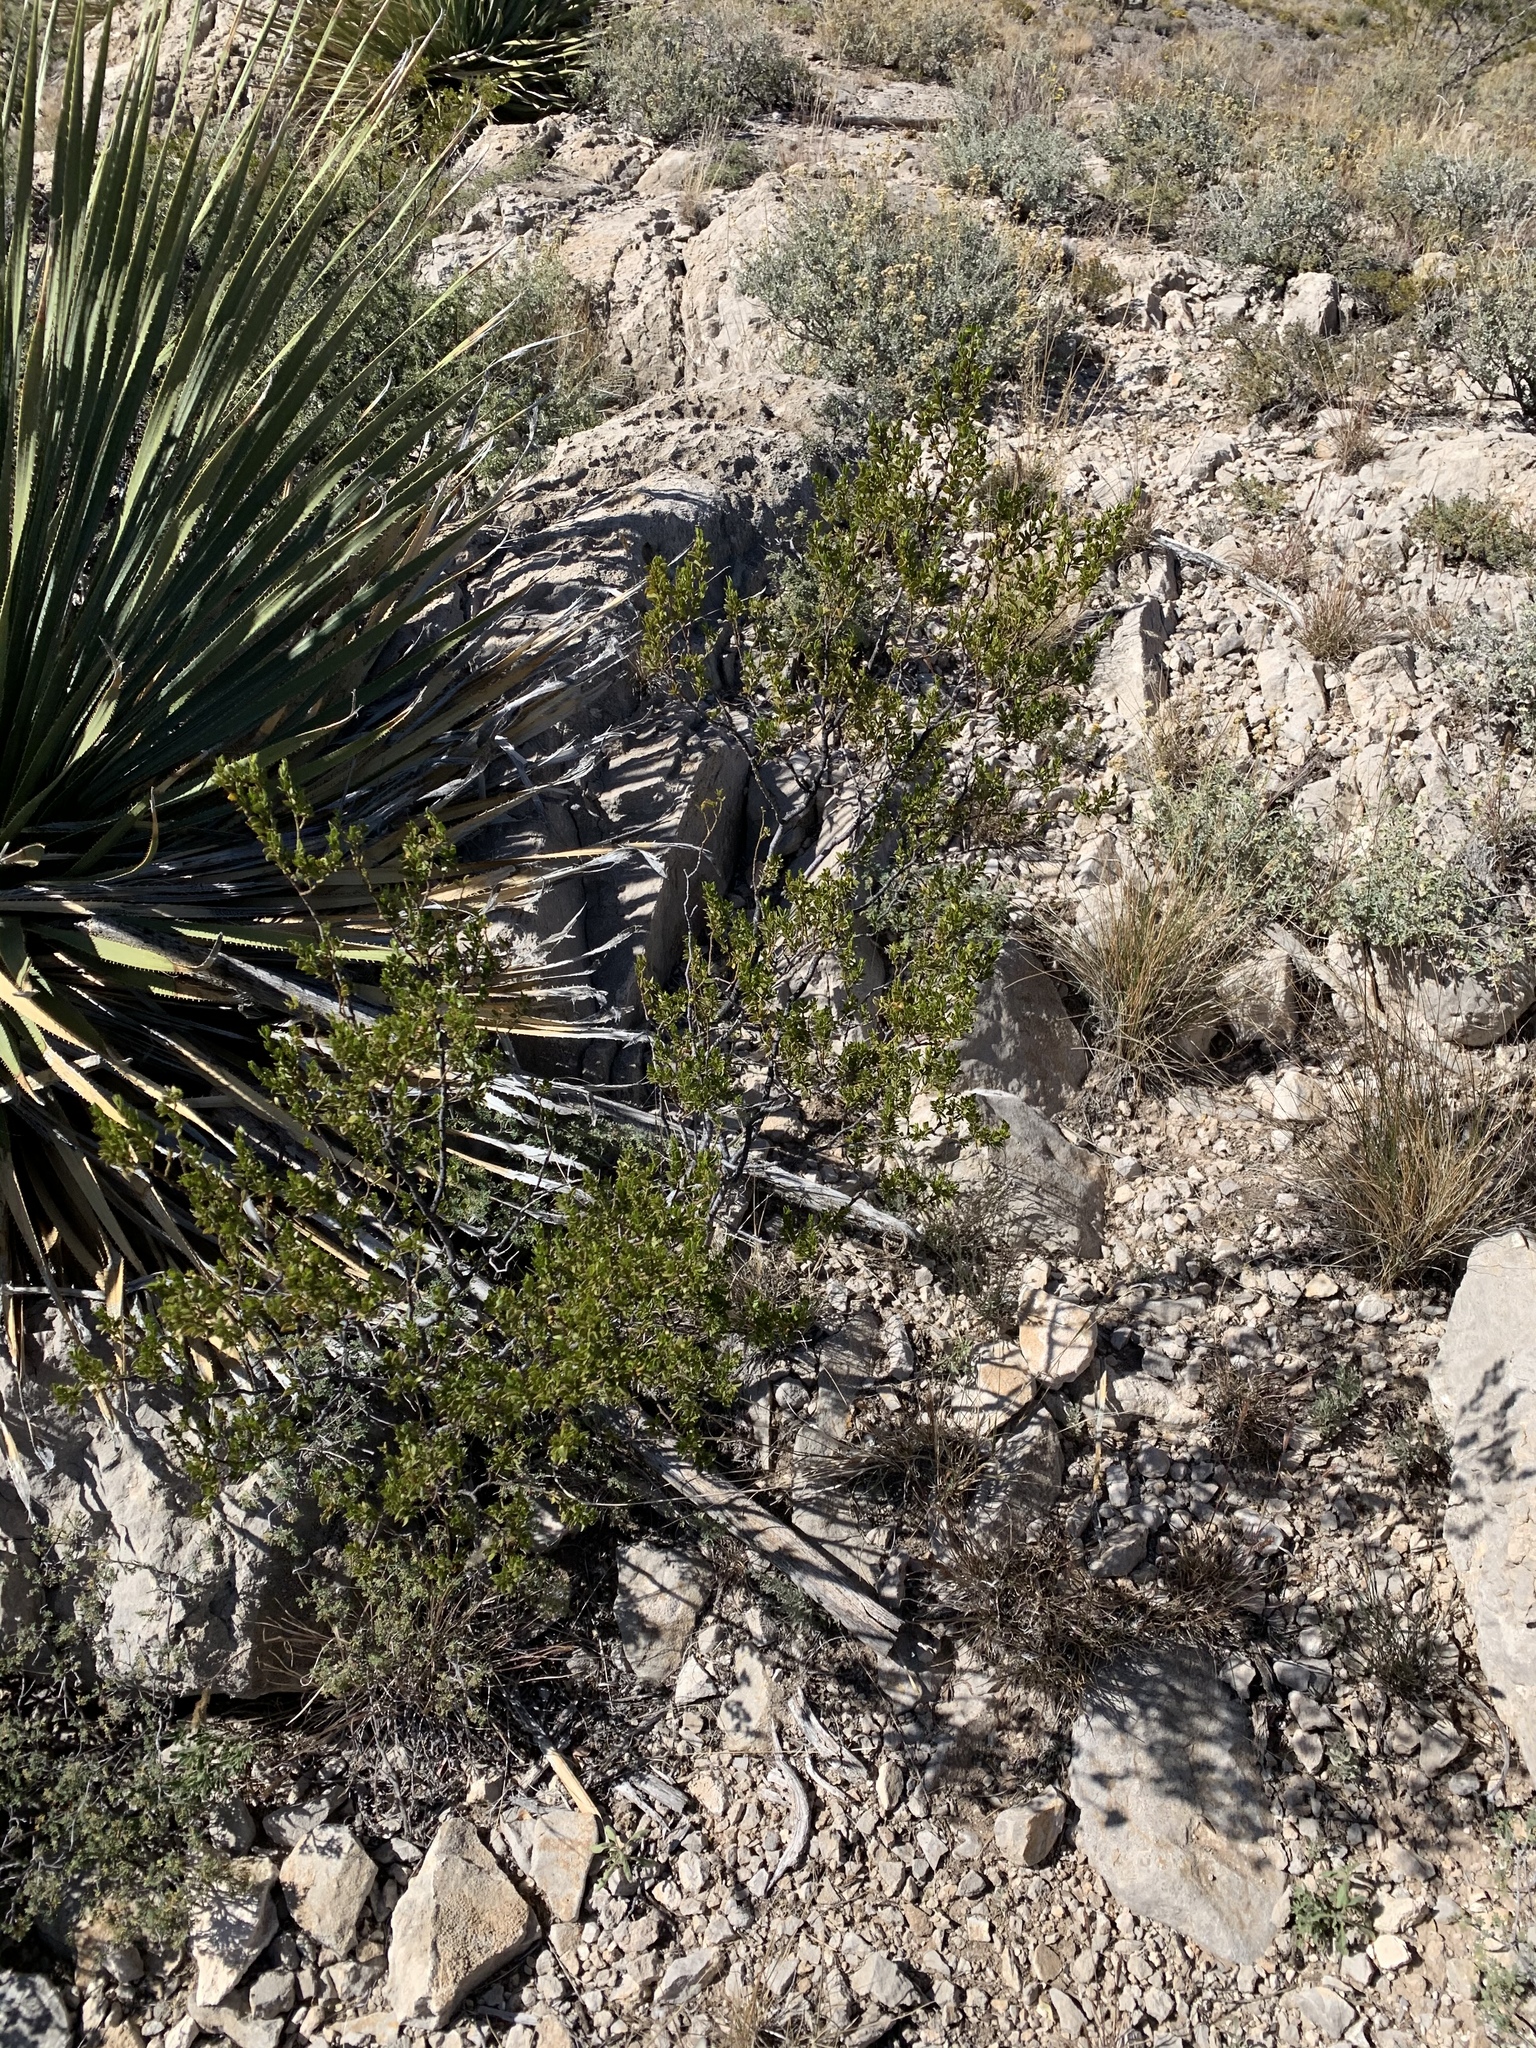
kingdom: Plantae
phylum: Tracheophyta
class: Magnoliopsida
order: Zygophyllales
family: Zygophyllaceae
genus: Larrea
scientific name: Larrea tridentata
